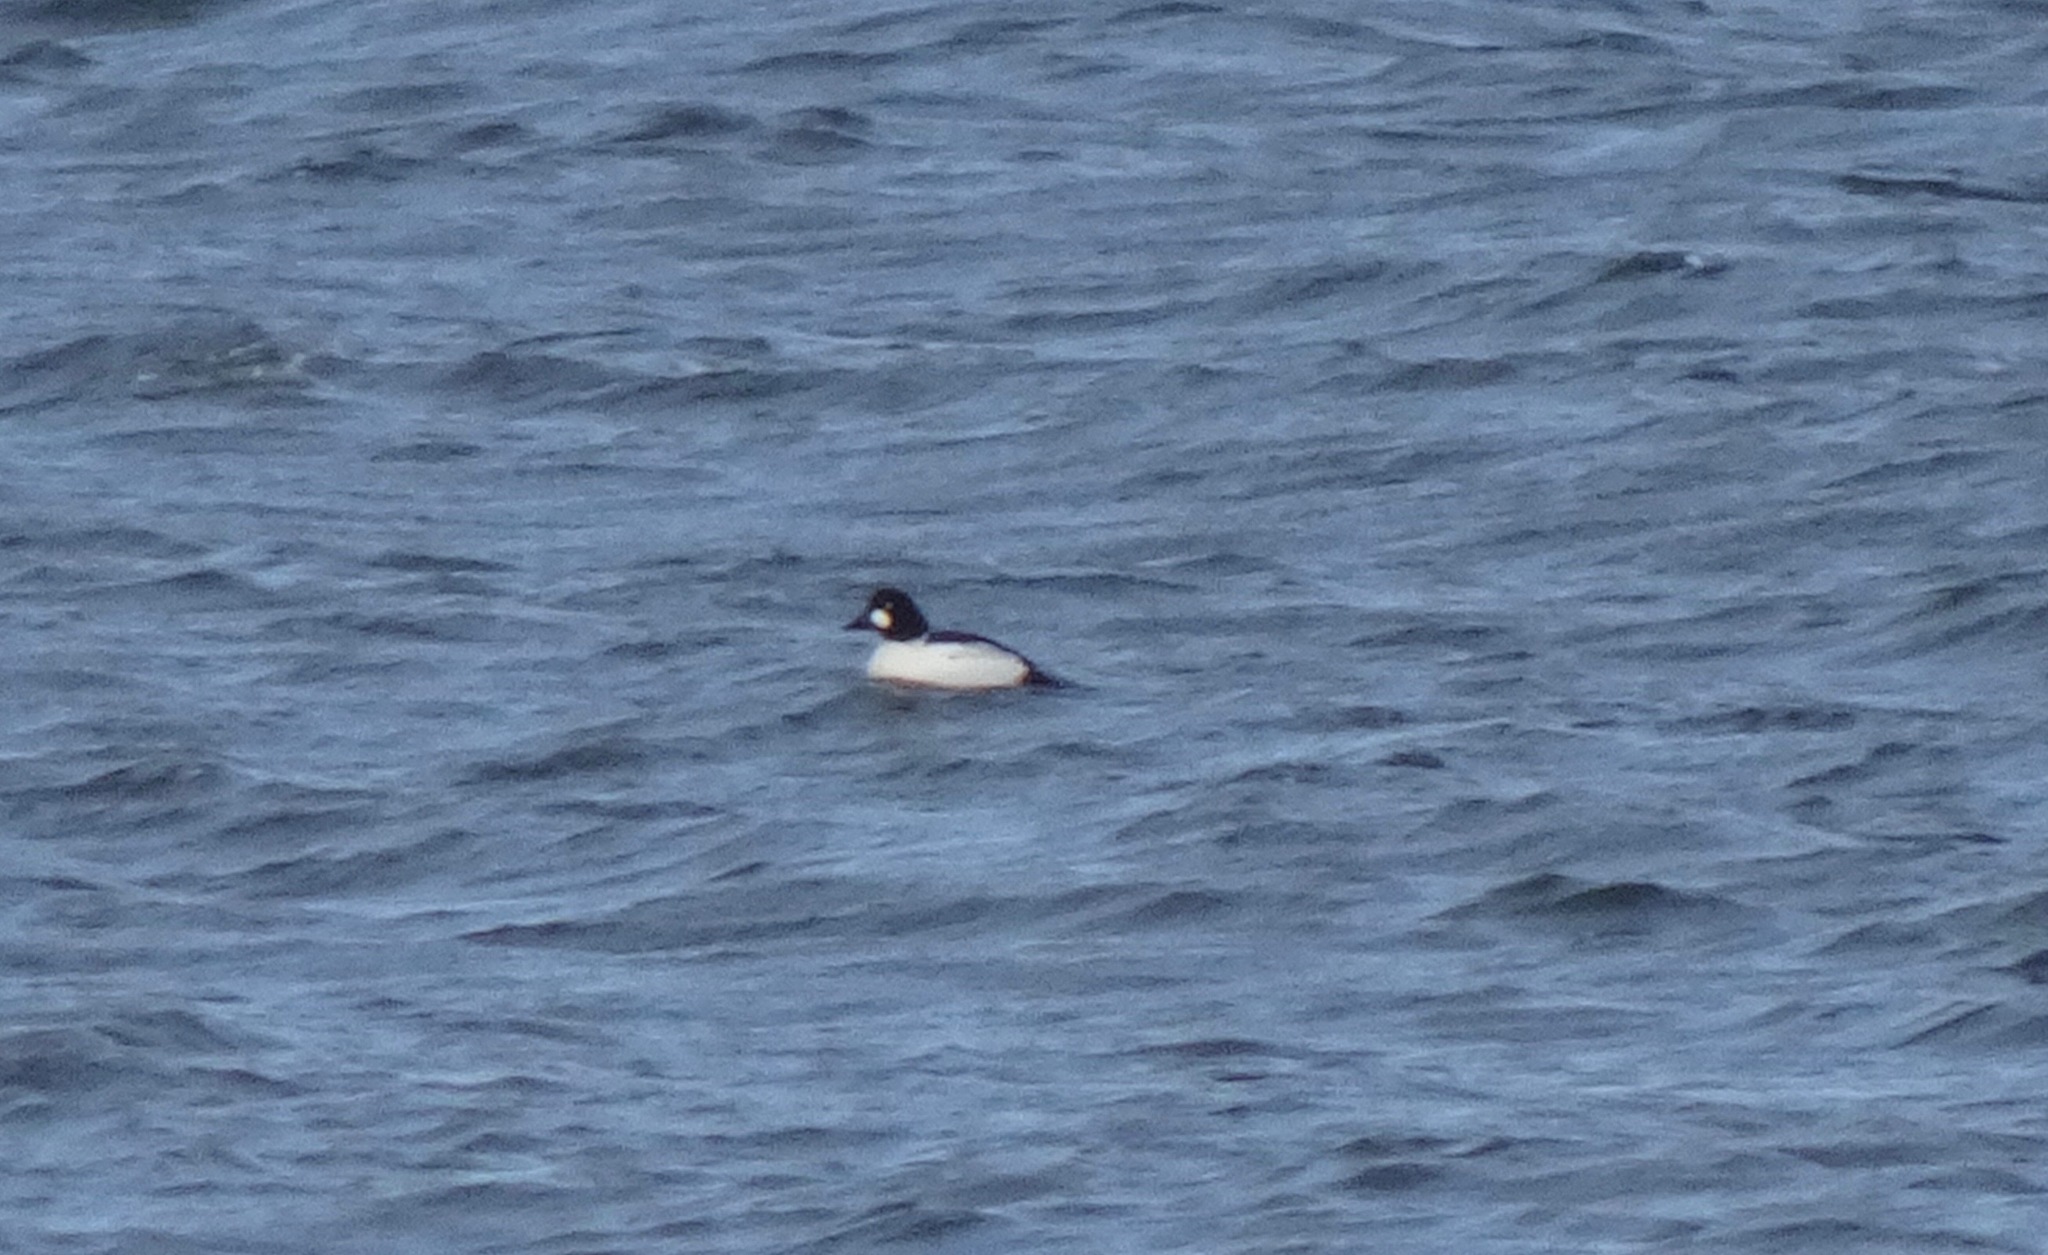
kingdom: Animalia
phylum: Chordata
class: Aves
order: Anseriformes
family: Anatidae
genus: Bucephala
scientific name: Bucephala clangula
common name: Common goldeneye
